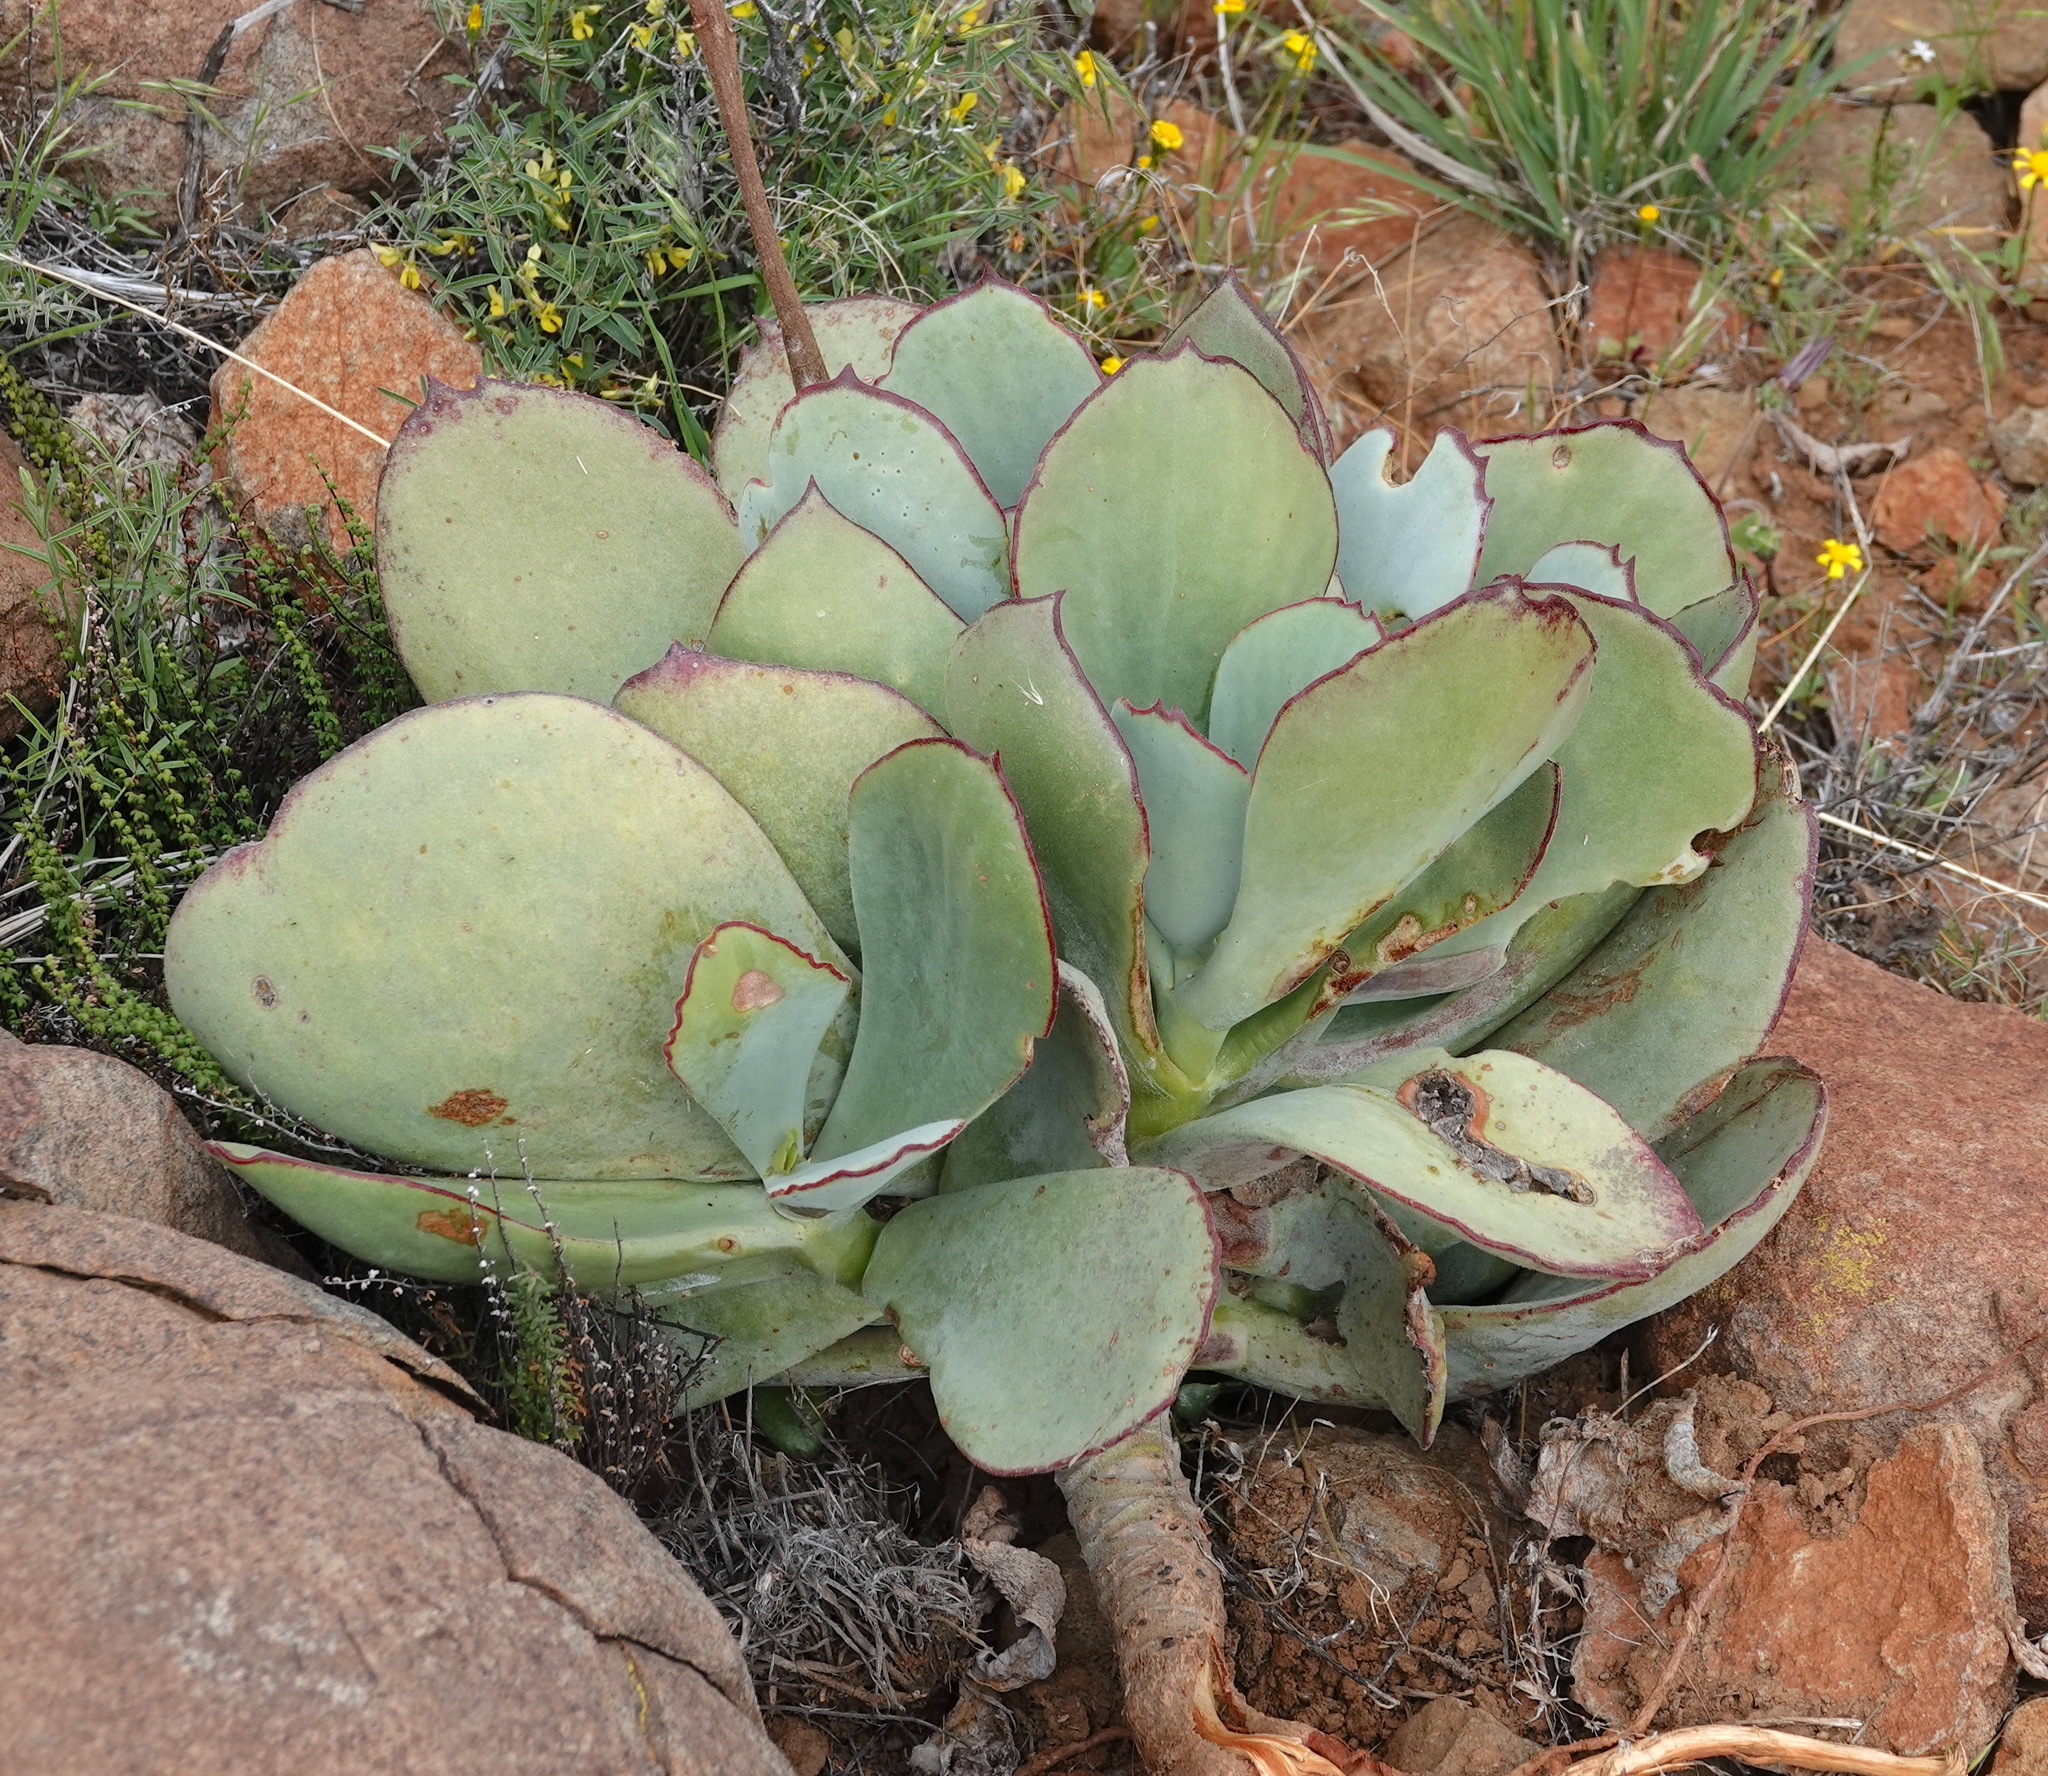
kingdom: Plantae
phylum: Tracheophyta
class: Magnoliopsida
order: Saxifragales
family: Crassulaceae
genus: Cotyledon
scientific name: Cotyledon orbiculata
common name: Pig's ear
